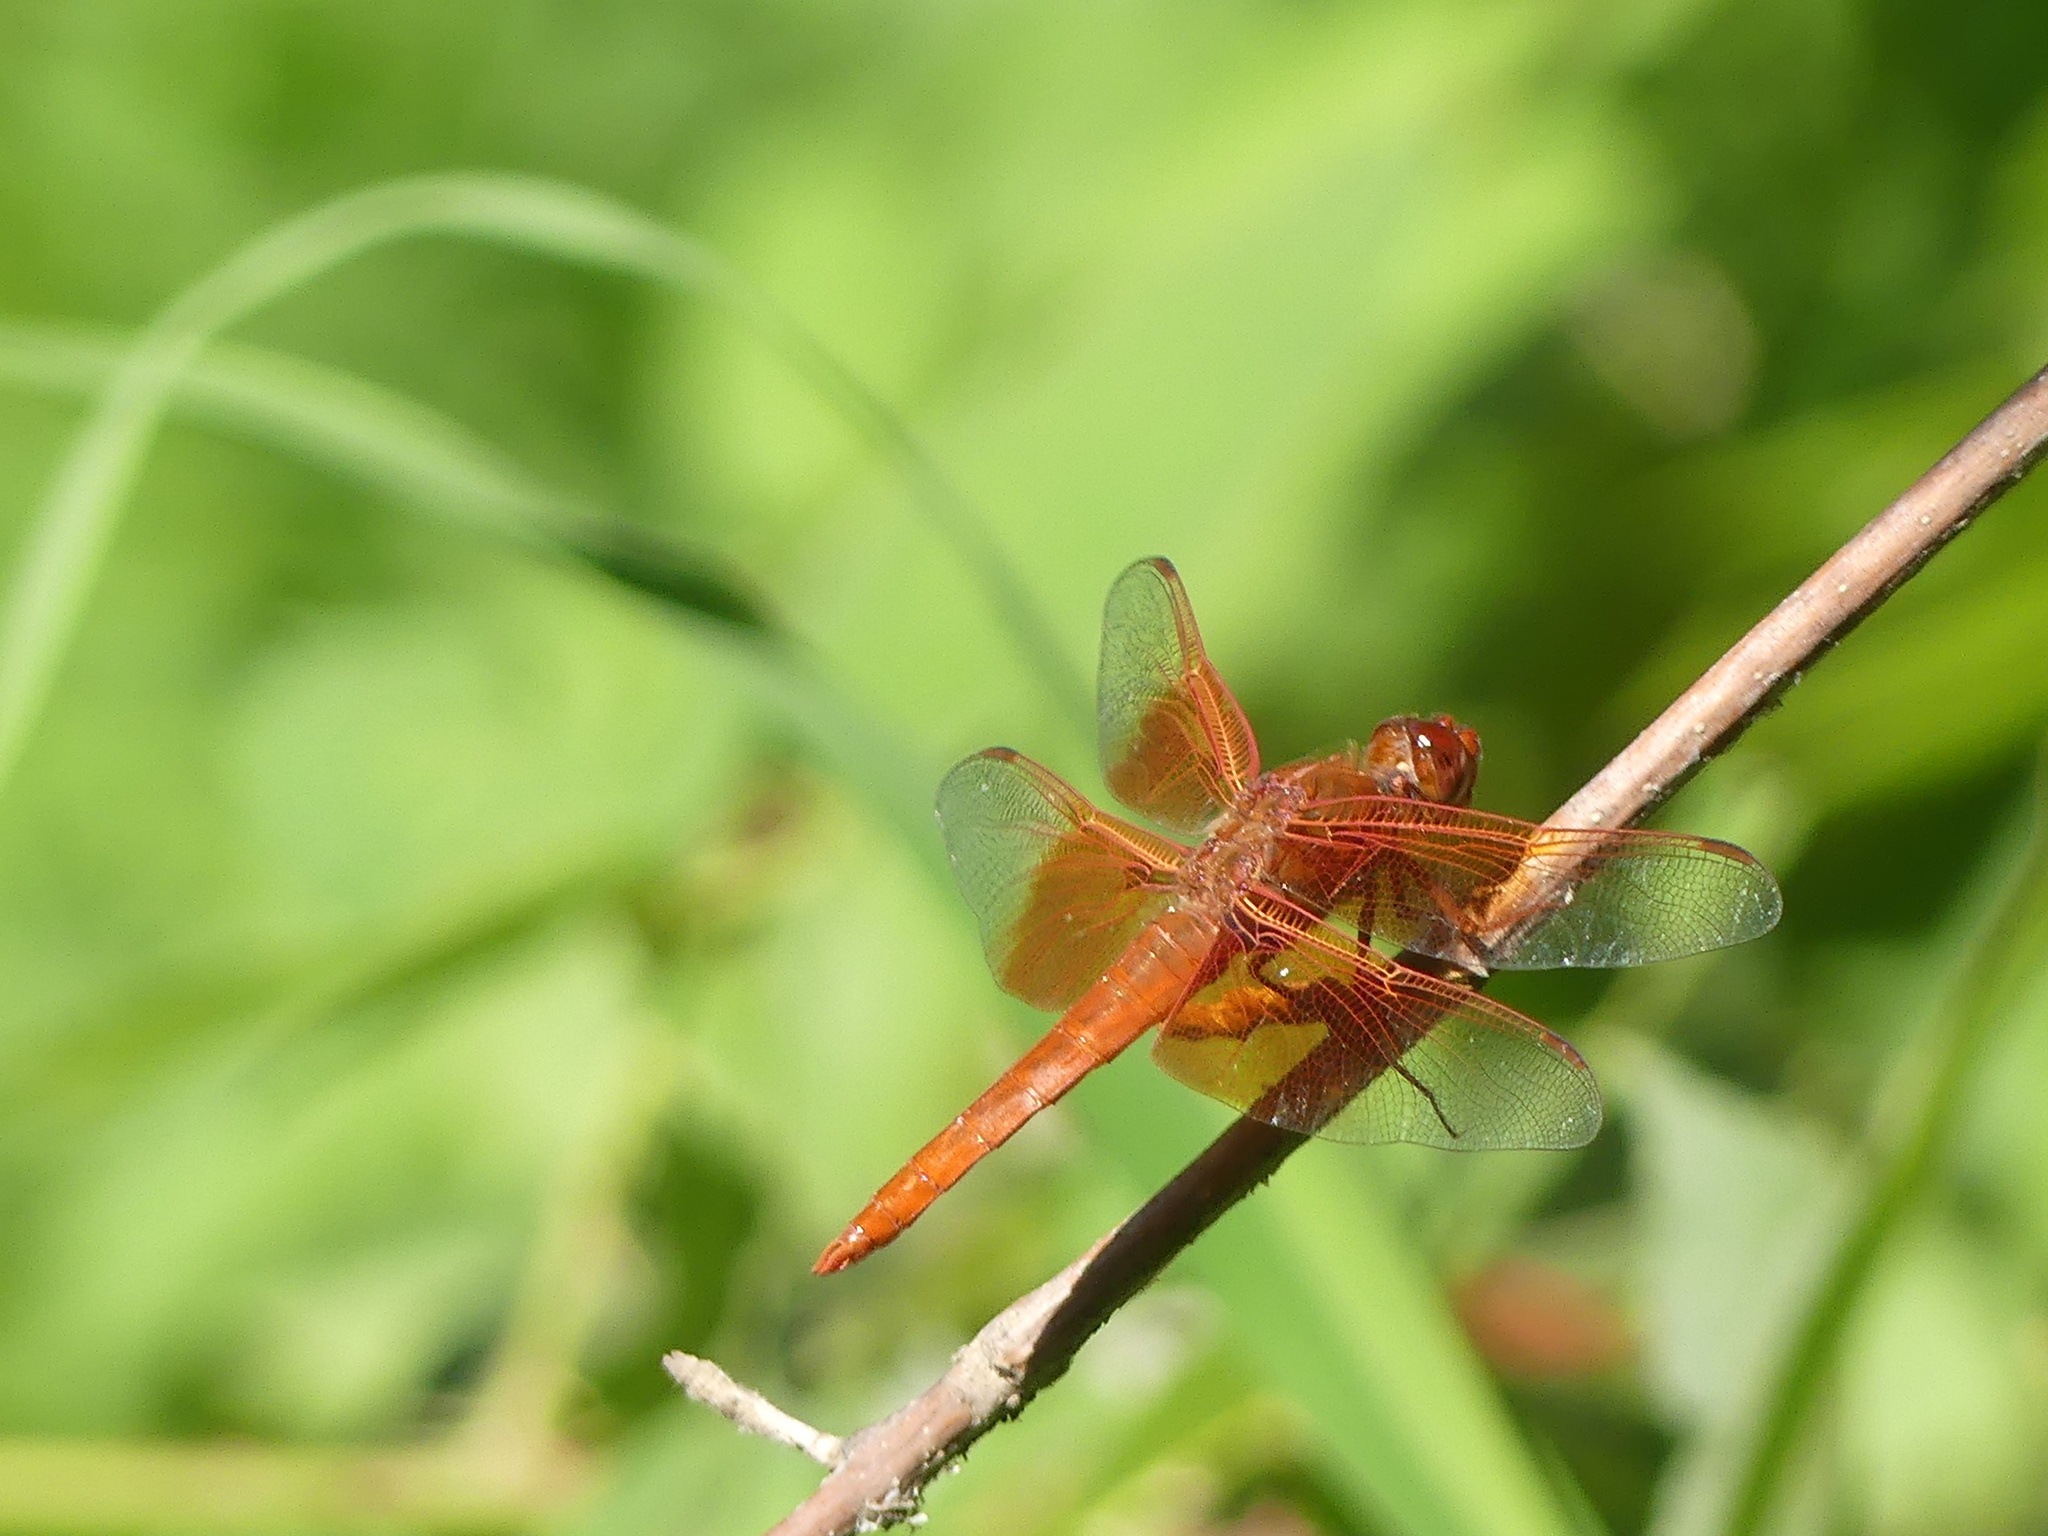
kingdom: Animalia
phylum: Arthropoda
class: Insecta
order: Odonata
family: Libellulidae
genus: Libellula
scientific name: Libellula saturata
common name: Flame skimmer
